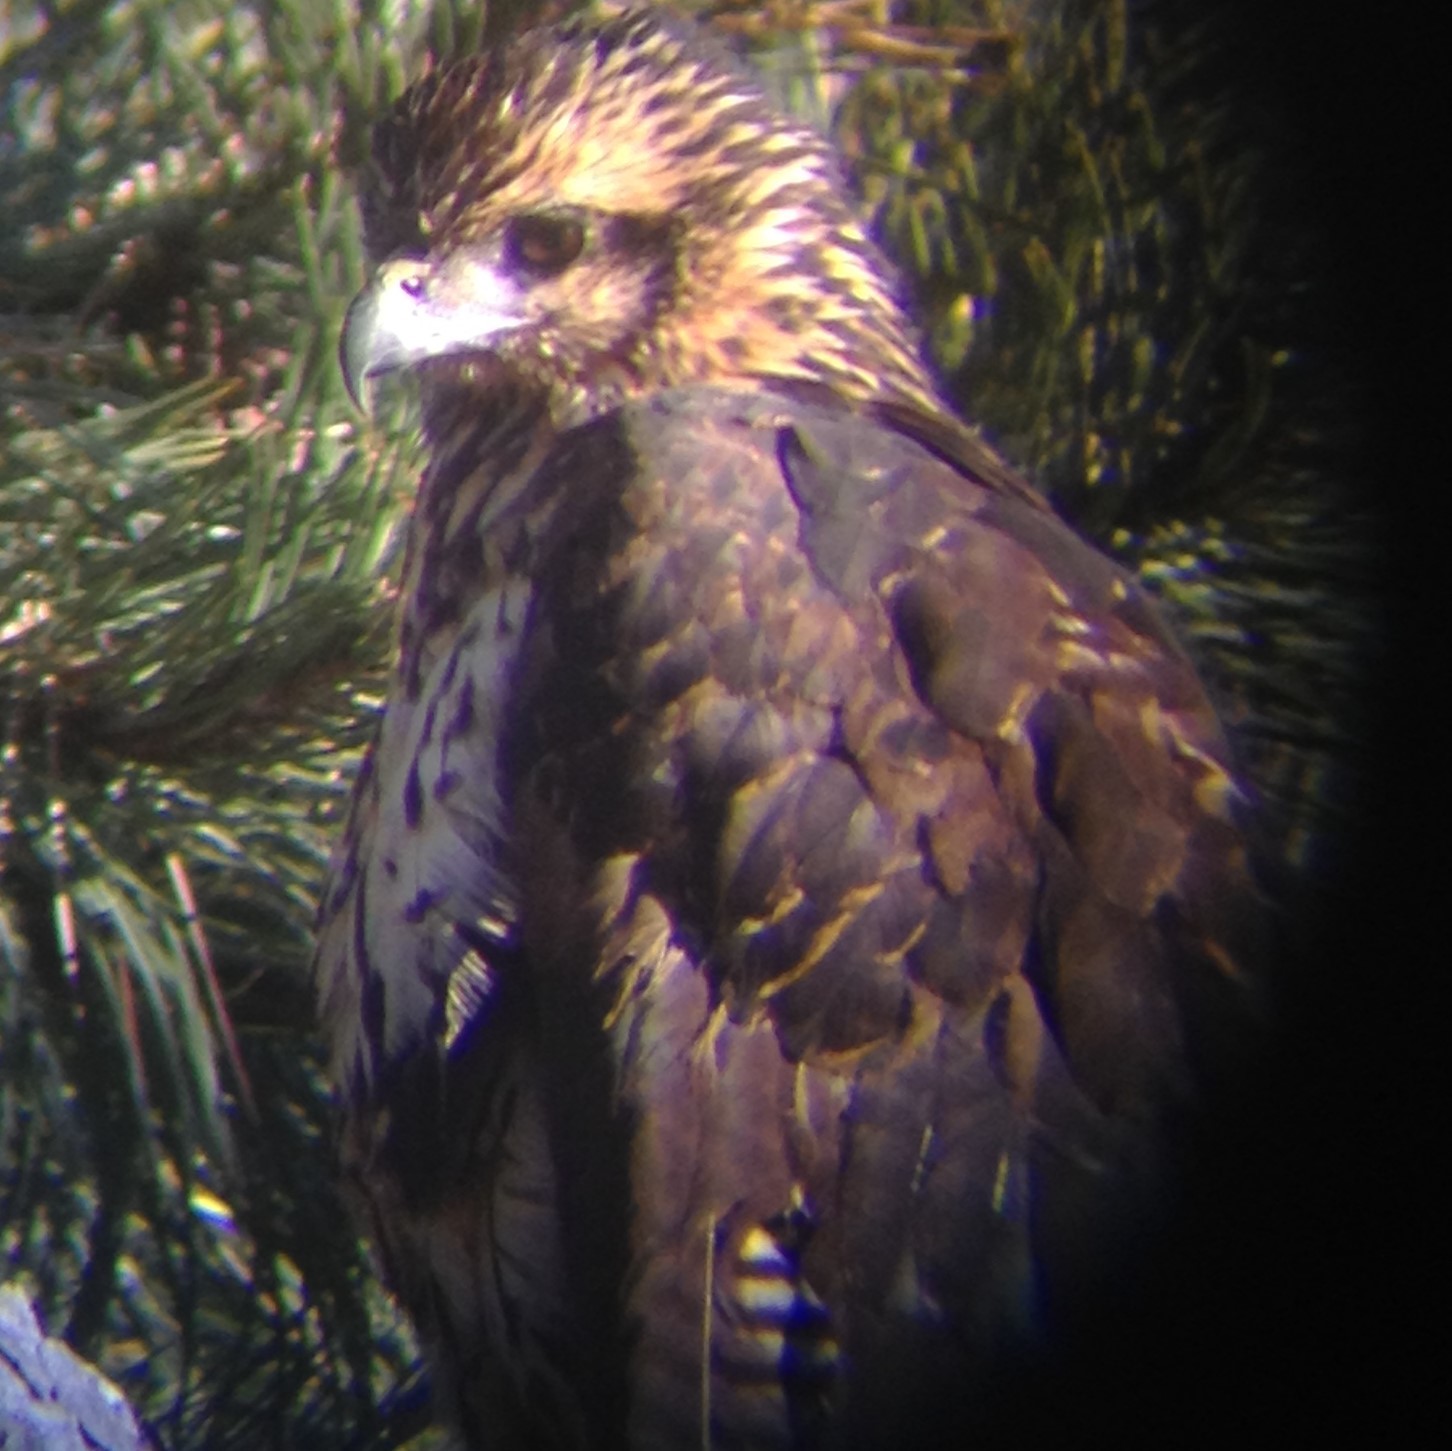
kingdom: Animalia
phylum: Chordata
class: Aves
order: Accipitriformes
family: Accipitridae
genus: Buteogallus
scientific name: Buteogallus urubitinga
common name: Great black hawk
